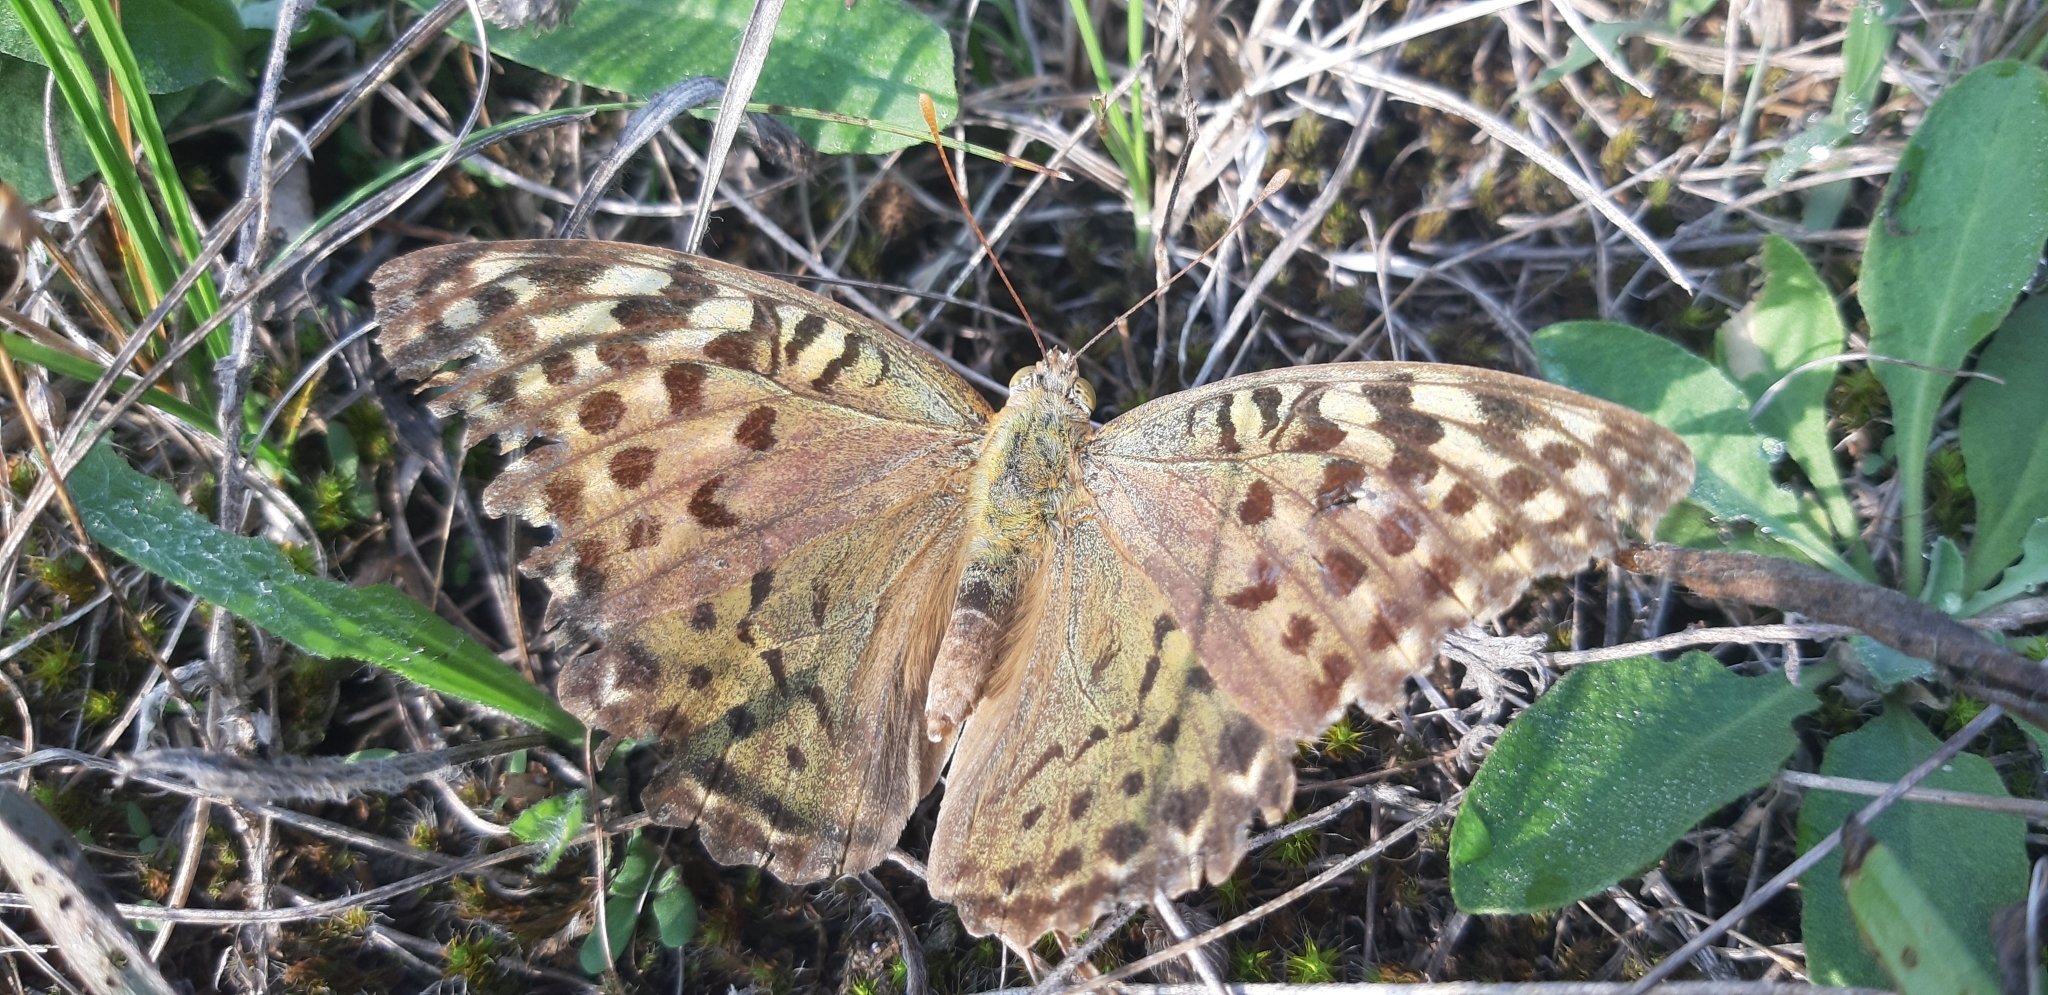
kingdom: Animalia
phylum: Arthropoda
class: Insecta
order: Lepidoptera
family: Nymphalidae
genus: Damora
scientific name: Damora pandora
